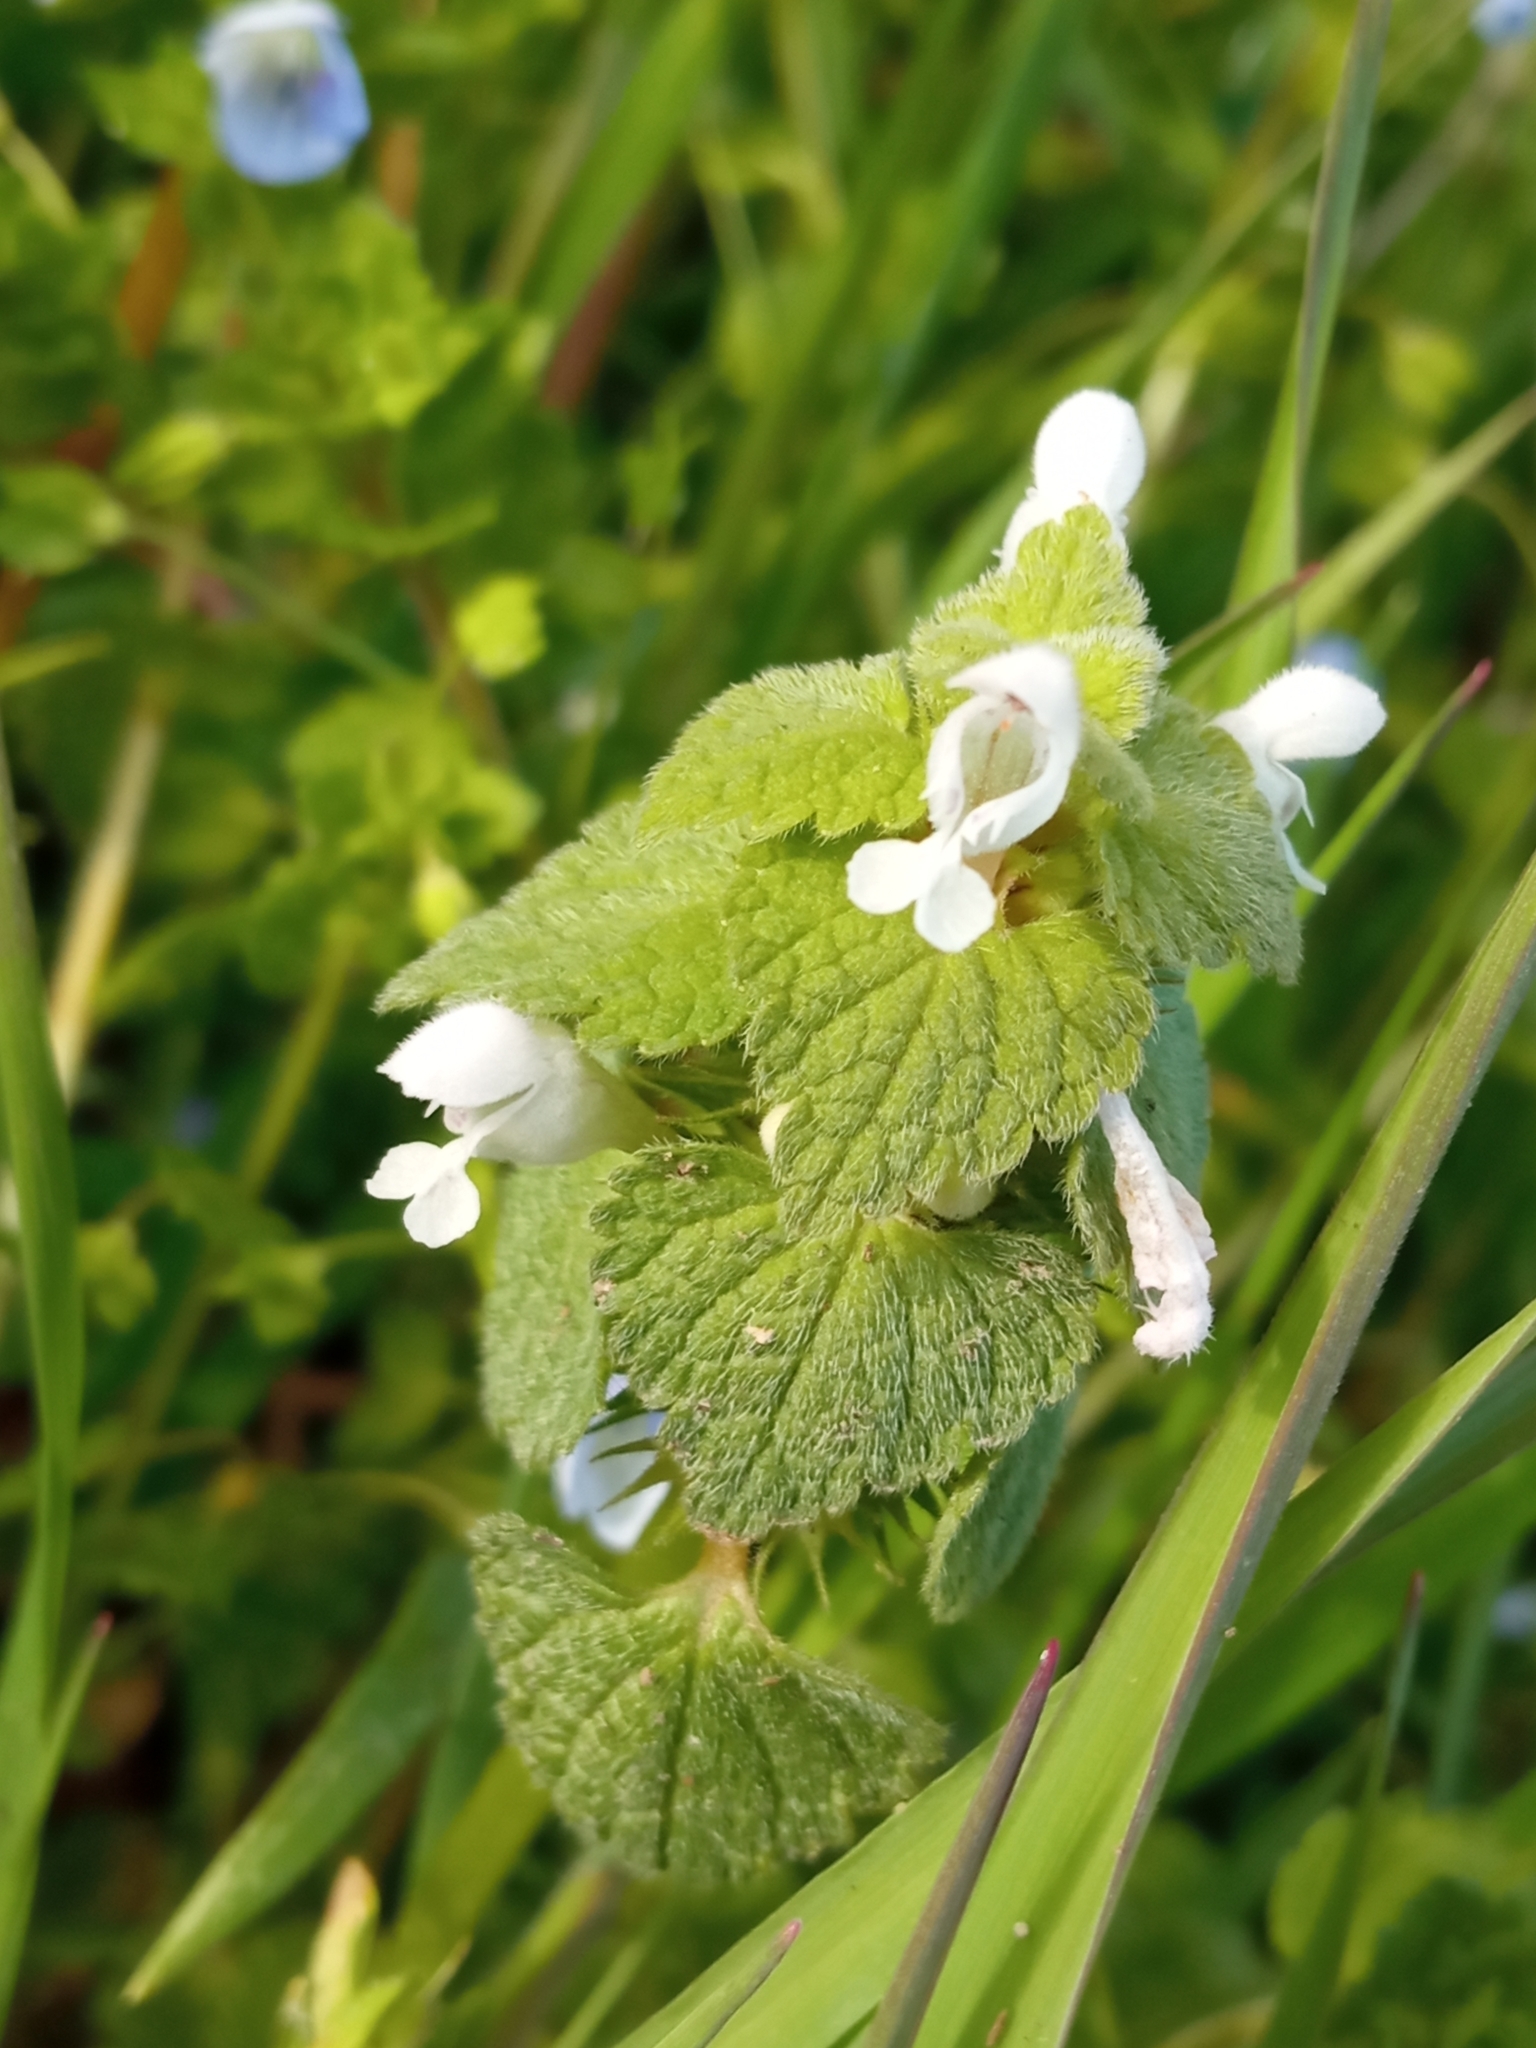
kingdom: Plantae
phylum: Tracheophyta
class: Magnoliopsida
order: Lamiales
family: Lamiaceae
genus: Lamium
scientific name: Lamium purpureum
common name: Red dead-nettle
